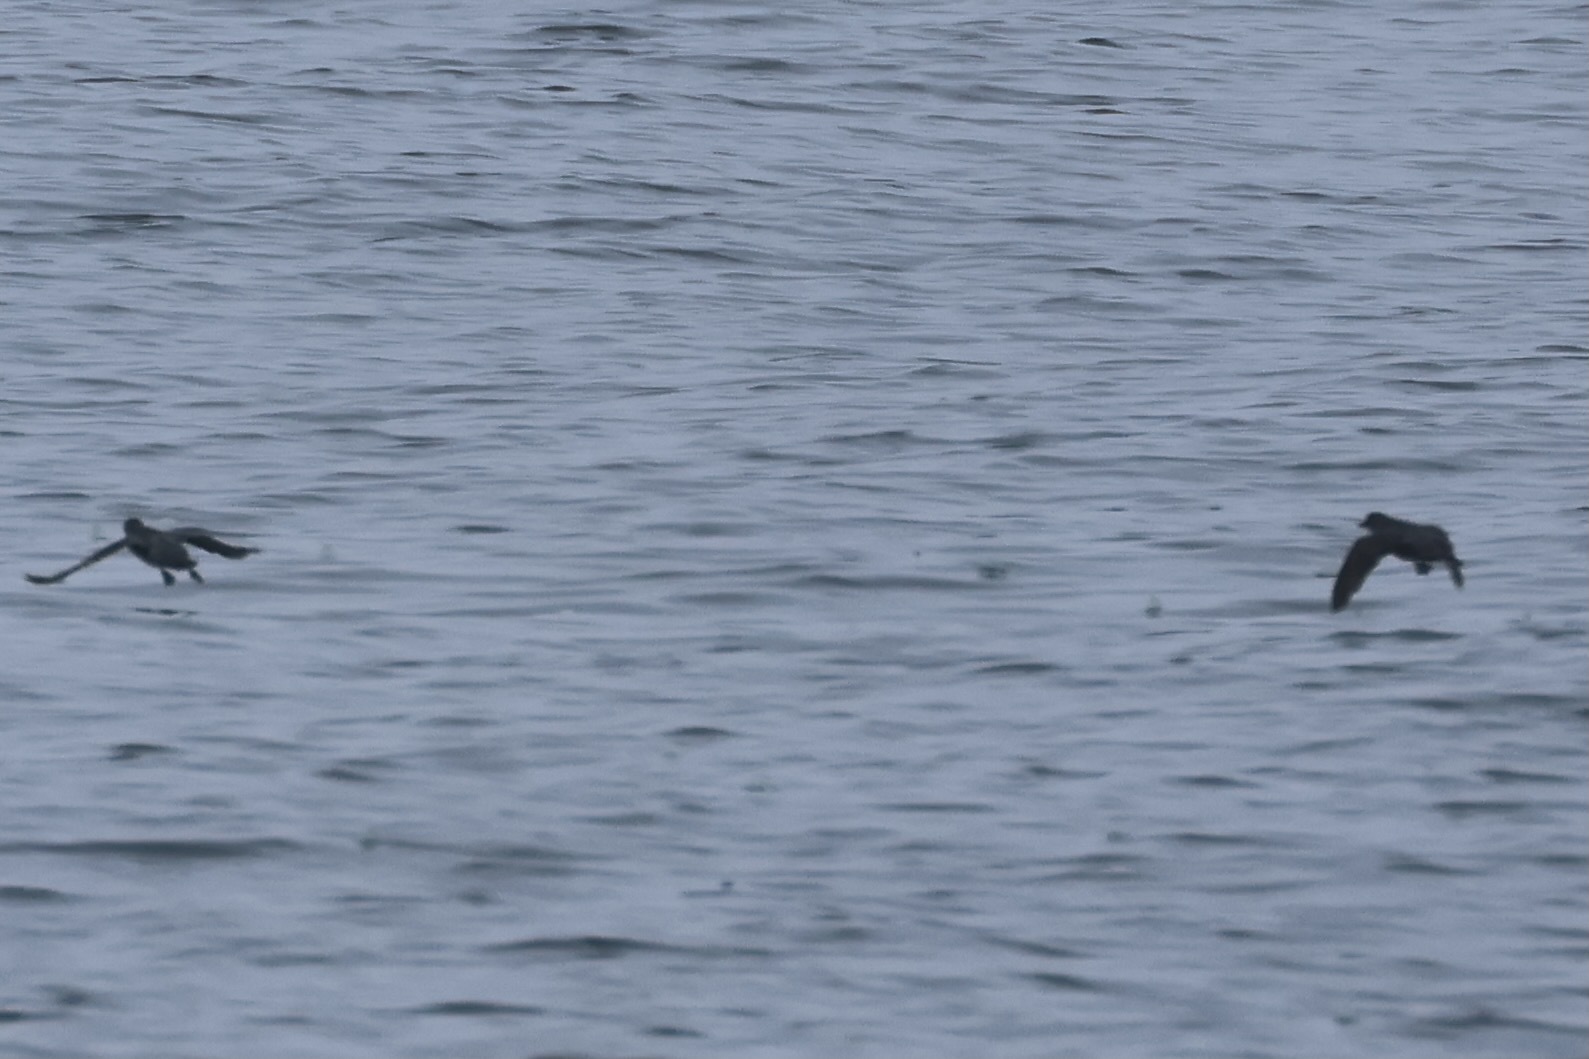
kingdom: Animalia
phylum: Chordata
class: Aves
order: Charadriiformes
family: Alcidae
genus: Ptychoramphus
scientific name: Ptychoramphus aleuticus
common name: Cassin's auklet
